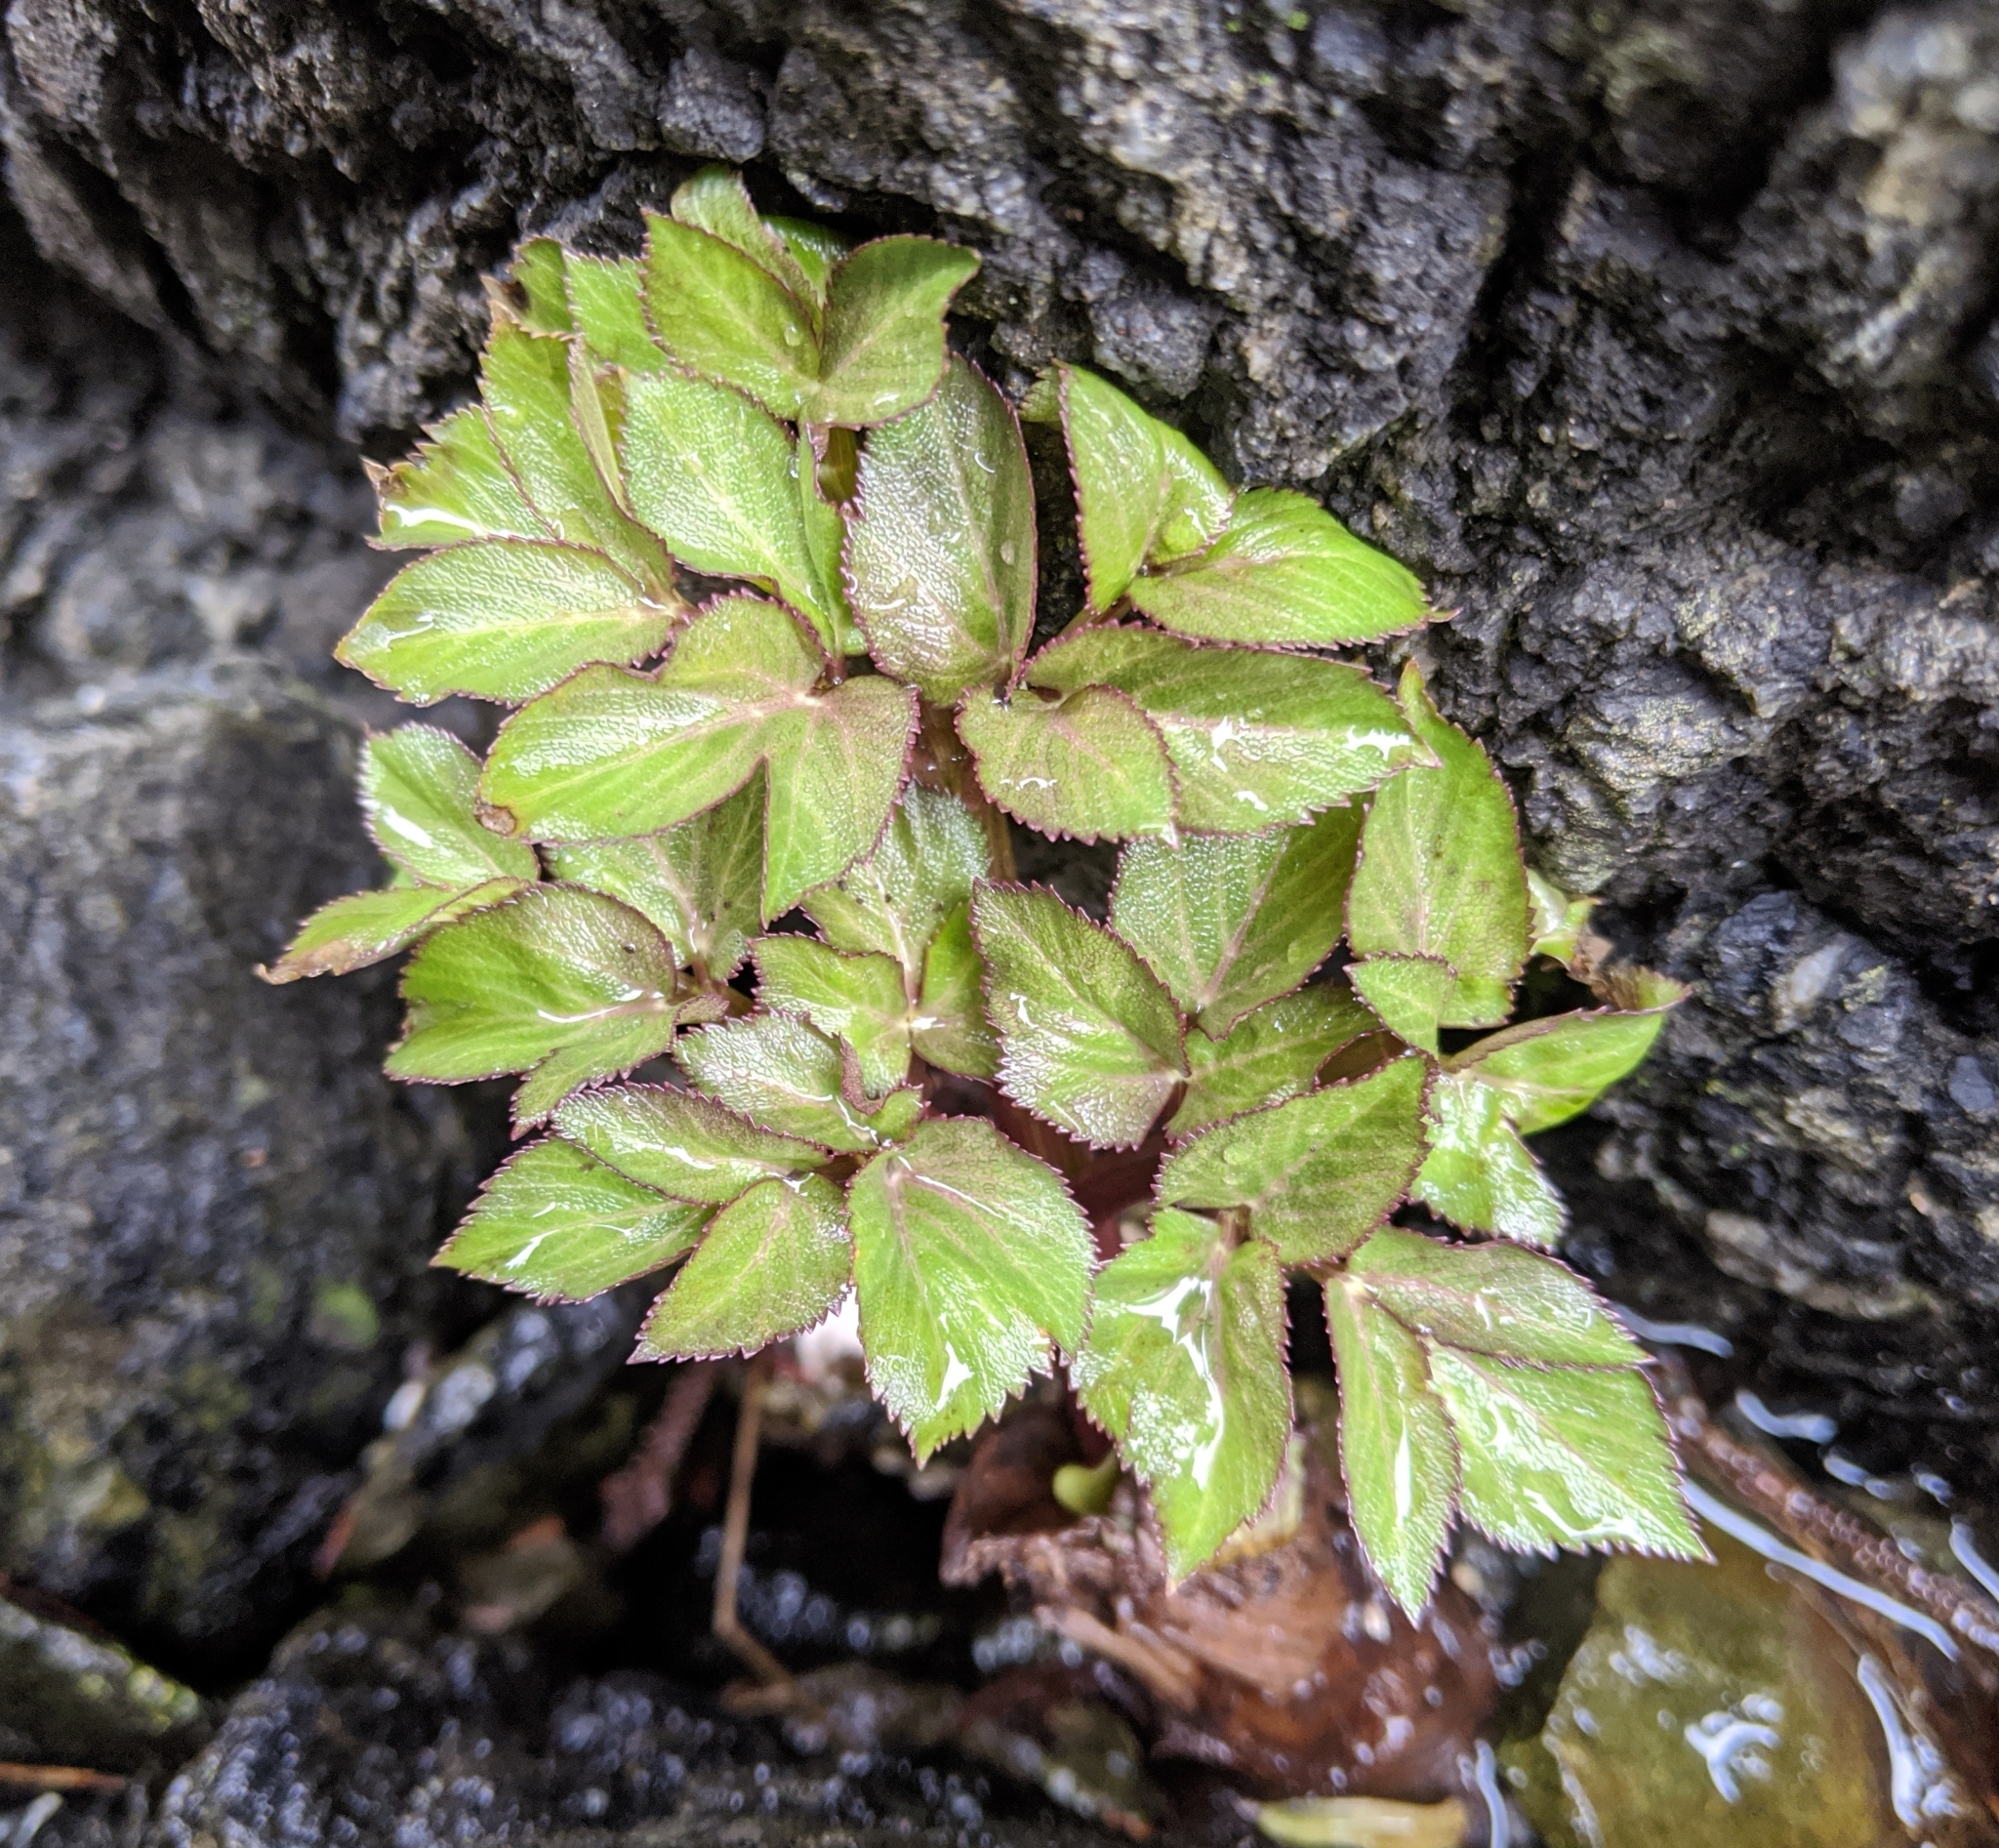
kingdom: Plantae
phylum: Tracheophyta
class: Magnoliopsida
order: Apiales
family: Apiaceae
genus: Angelica
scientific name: Angelica lucida
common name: Seabeach angelica
